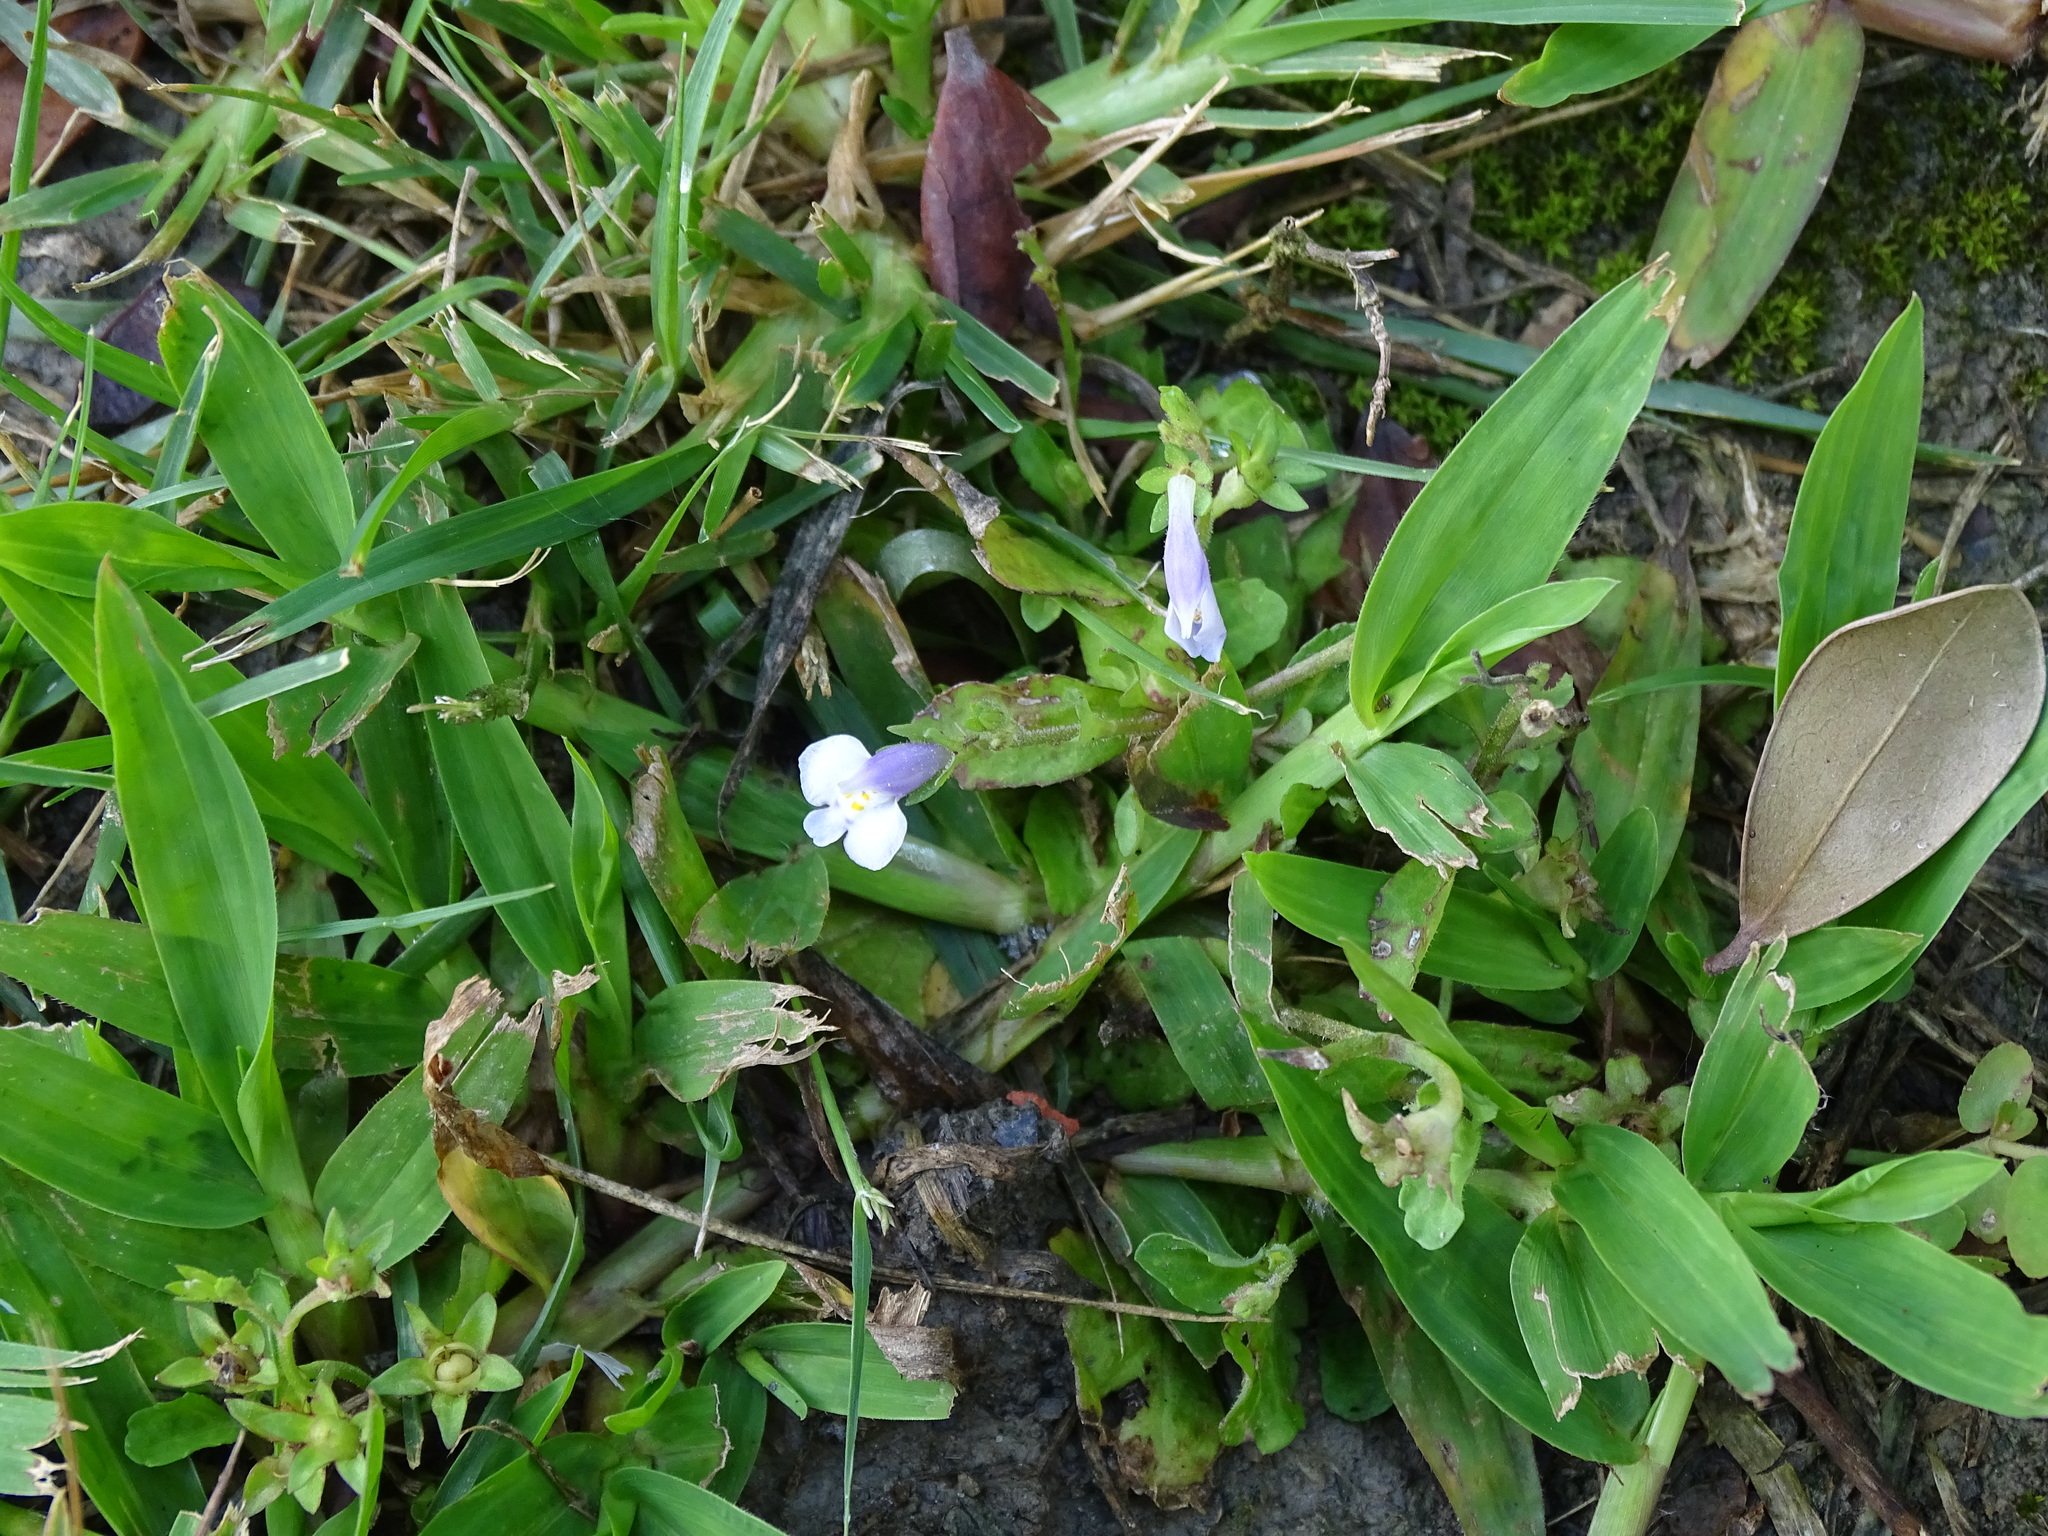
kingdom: Plantae
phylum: Tracheophyta
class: Magnoliopsida
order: Lamiales
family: Mazaceae
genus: Mazus
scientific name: Mazus pumilus
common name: Japanese mazus
